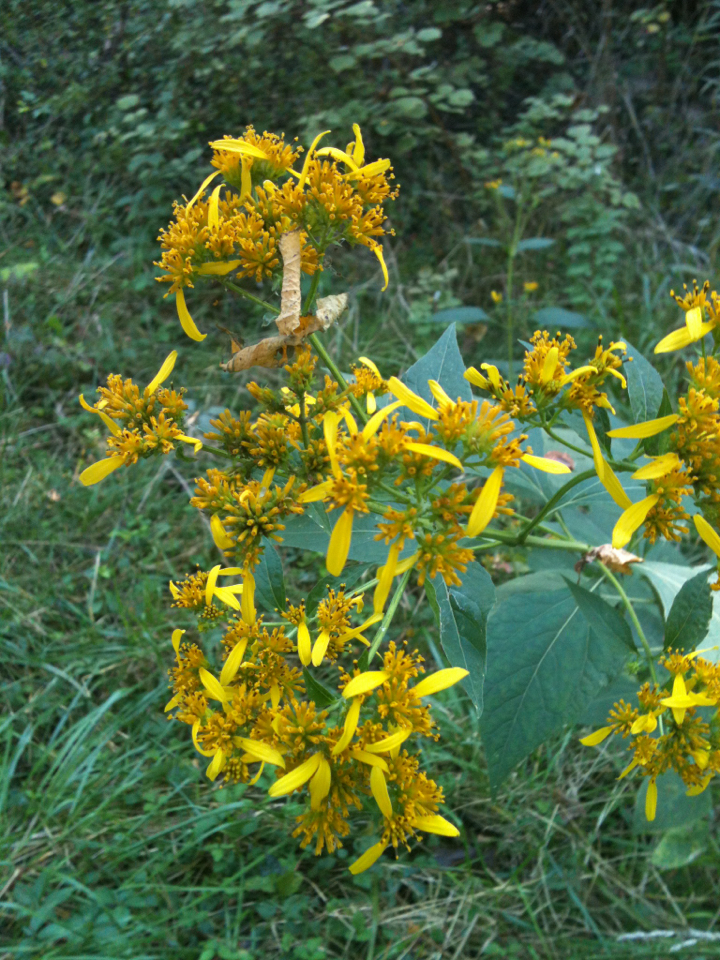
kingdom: Plantae
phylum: Tracheophyta
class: Magnoliopsida
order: Asterales
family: Asteraceae
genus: Verbesina
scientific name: Verbesina occidentalis
